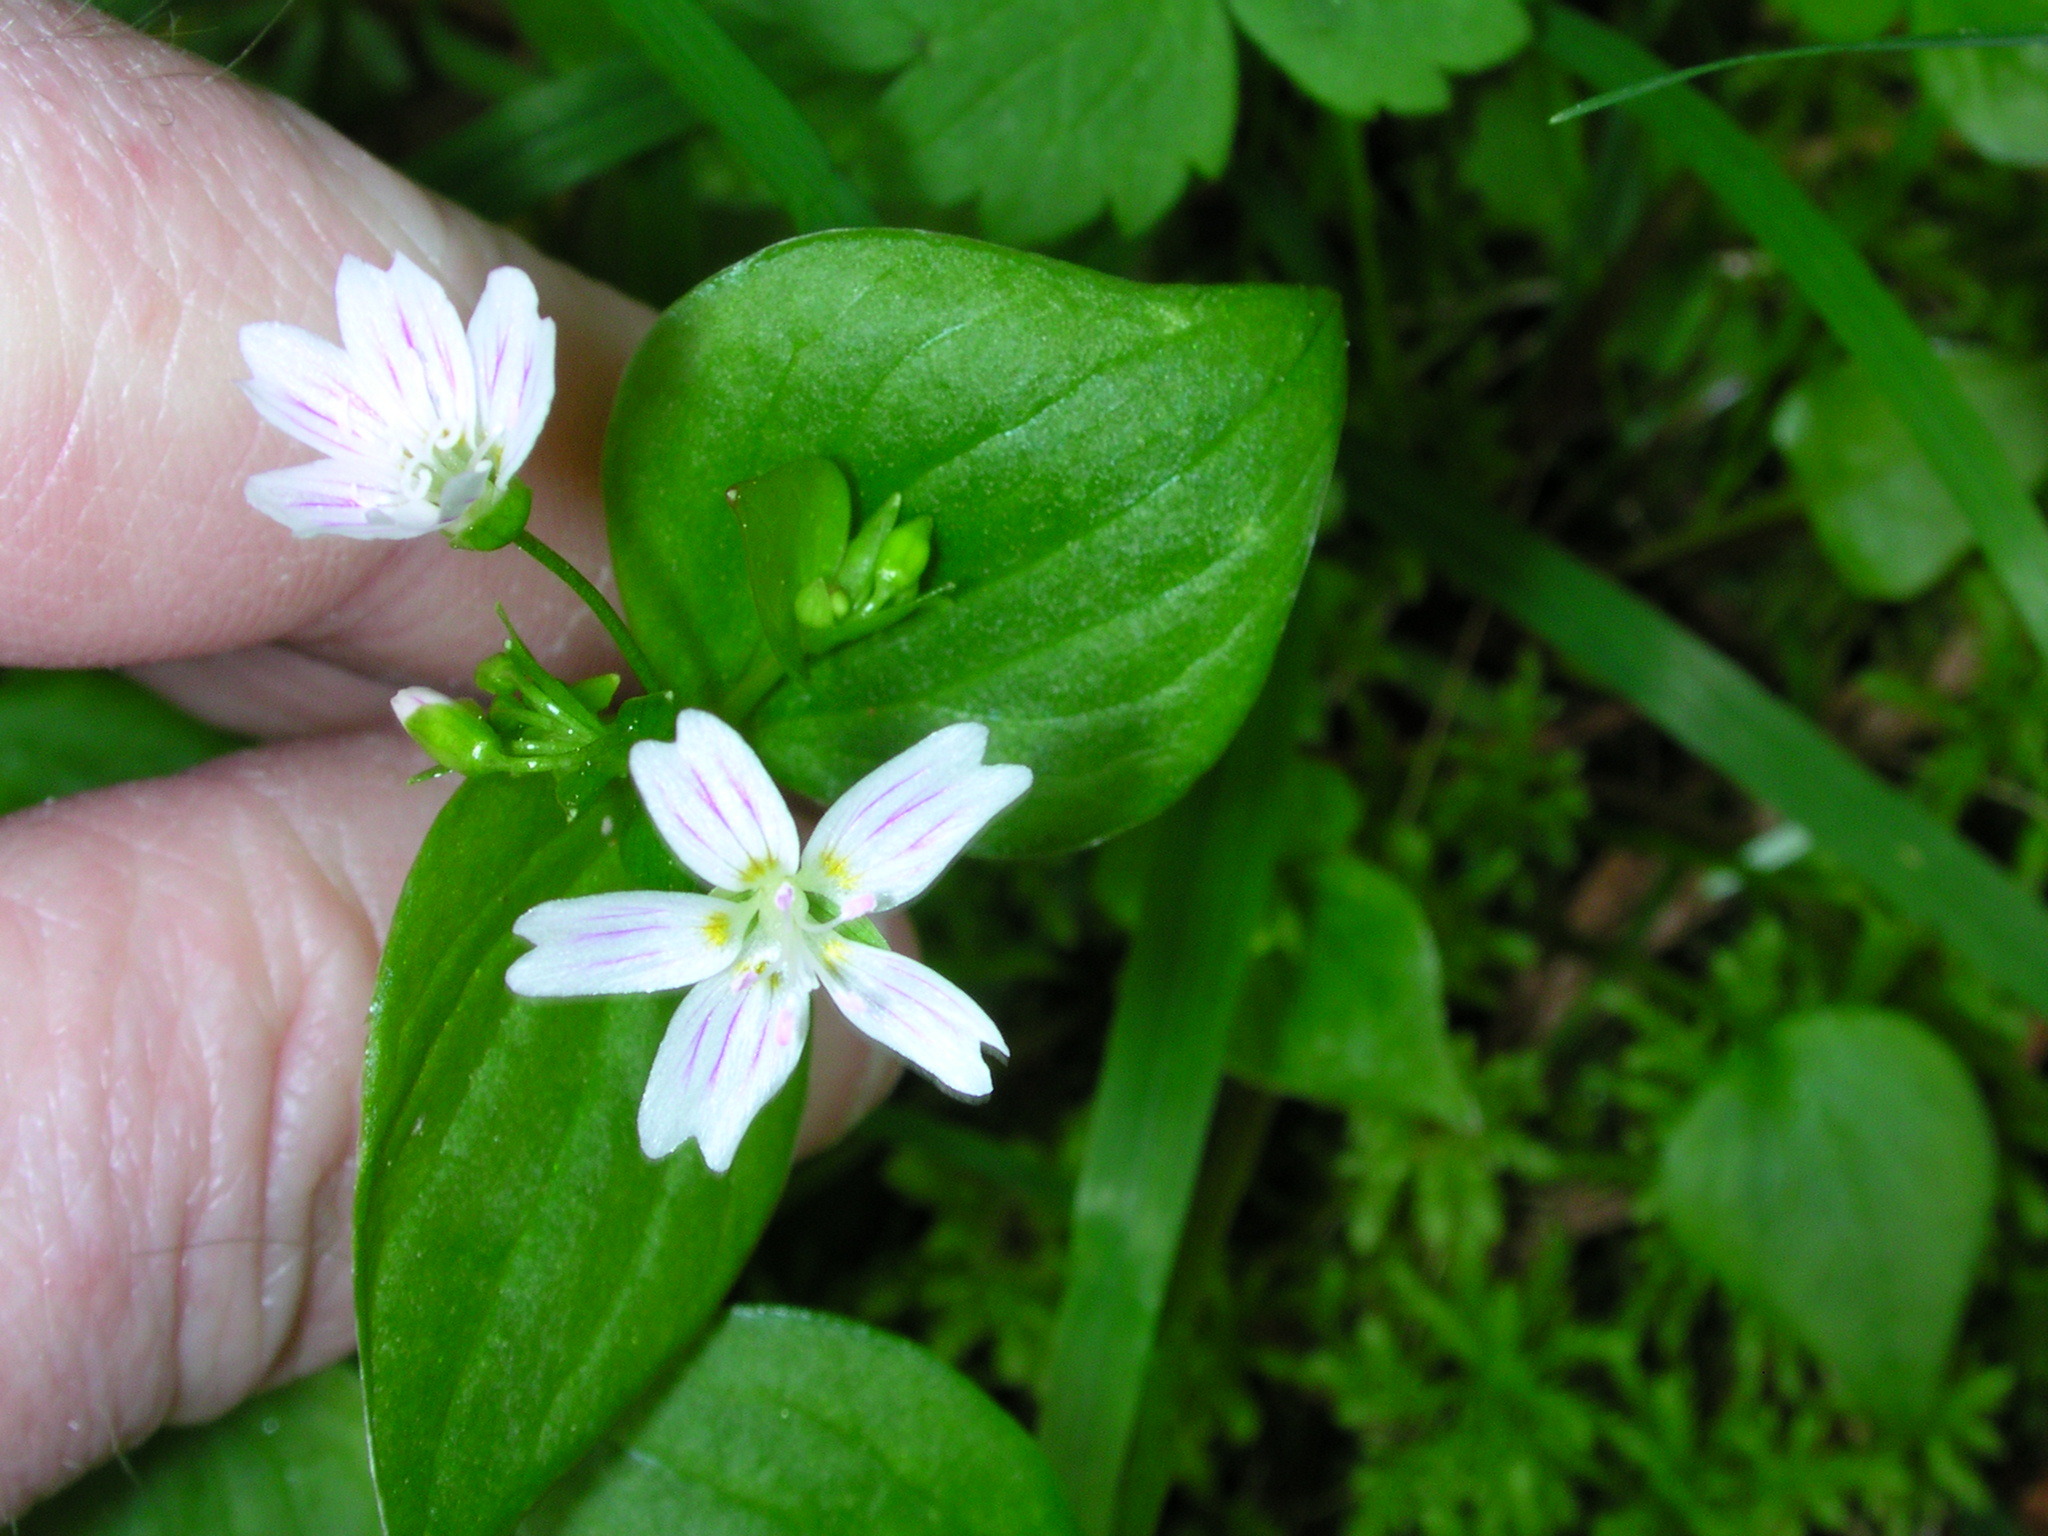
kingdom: Plantae
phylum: Tracheophyta
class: Magnoliopsida
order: Caryophyllales
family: Montiaceae
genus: Claytonia
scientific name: Claytonia sibirica
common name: Pink purslane
